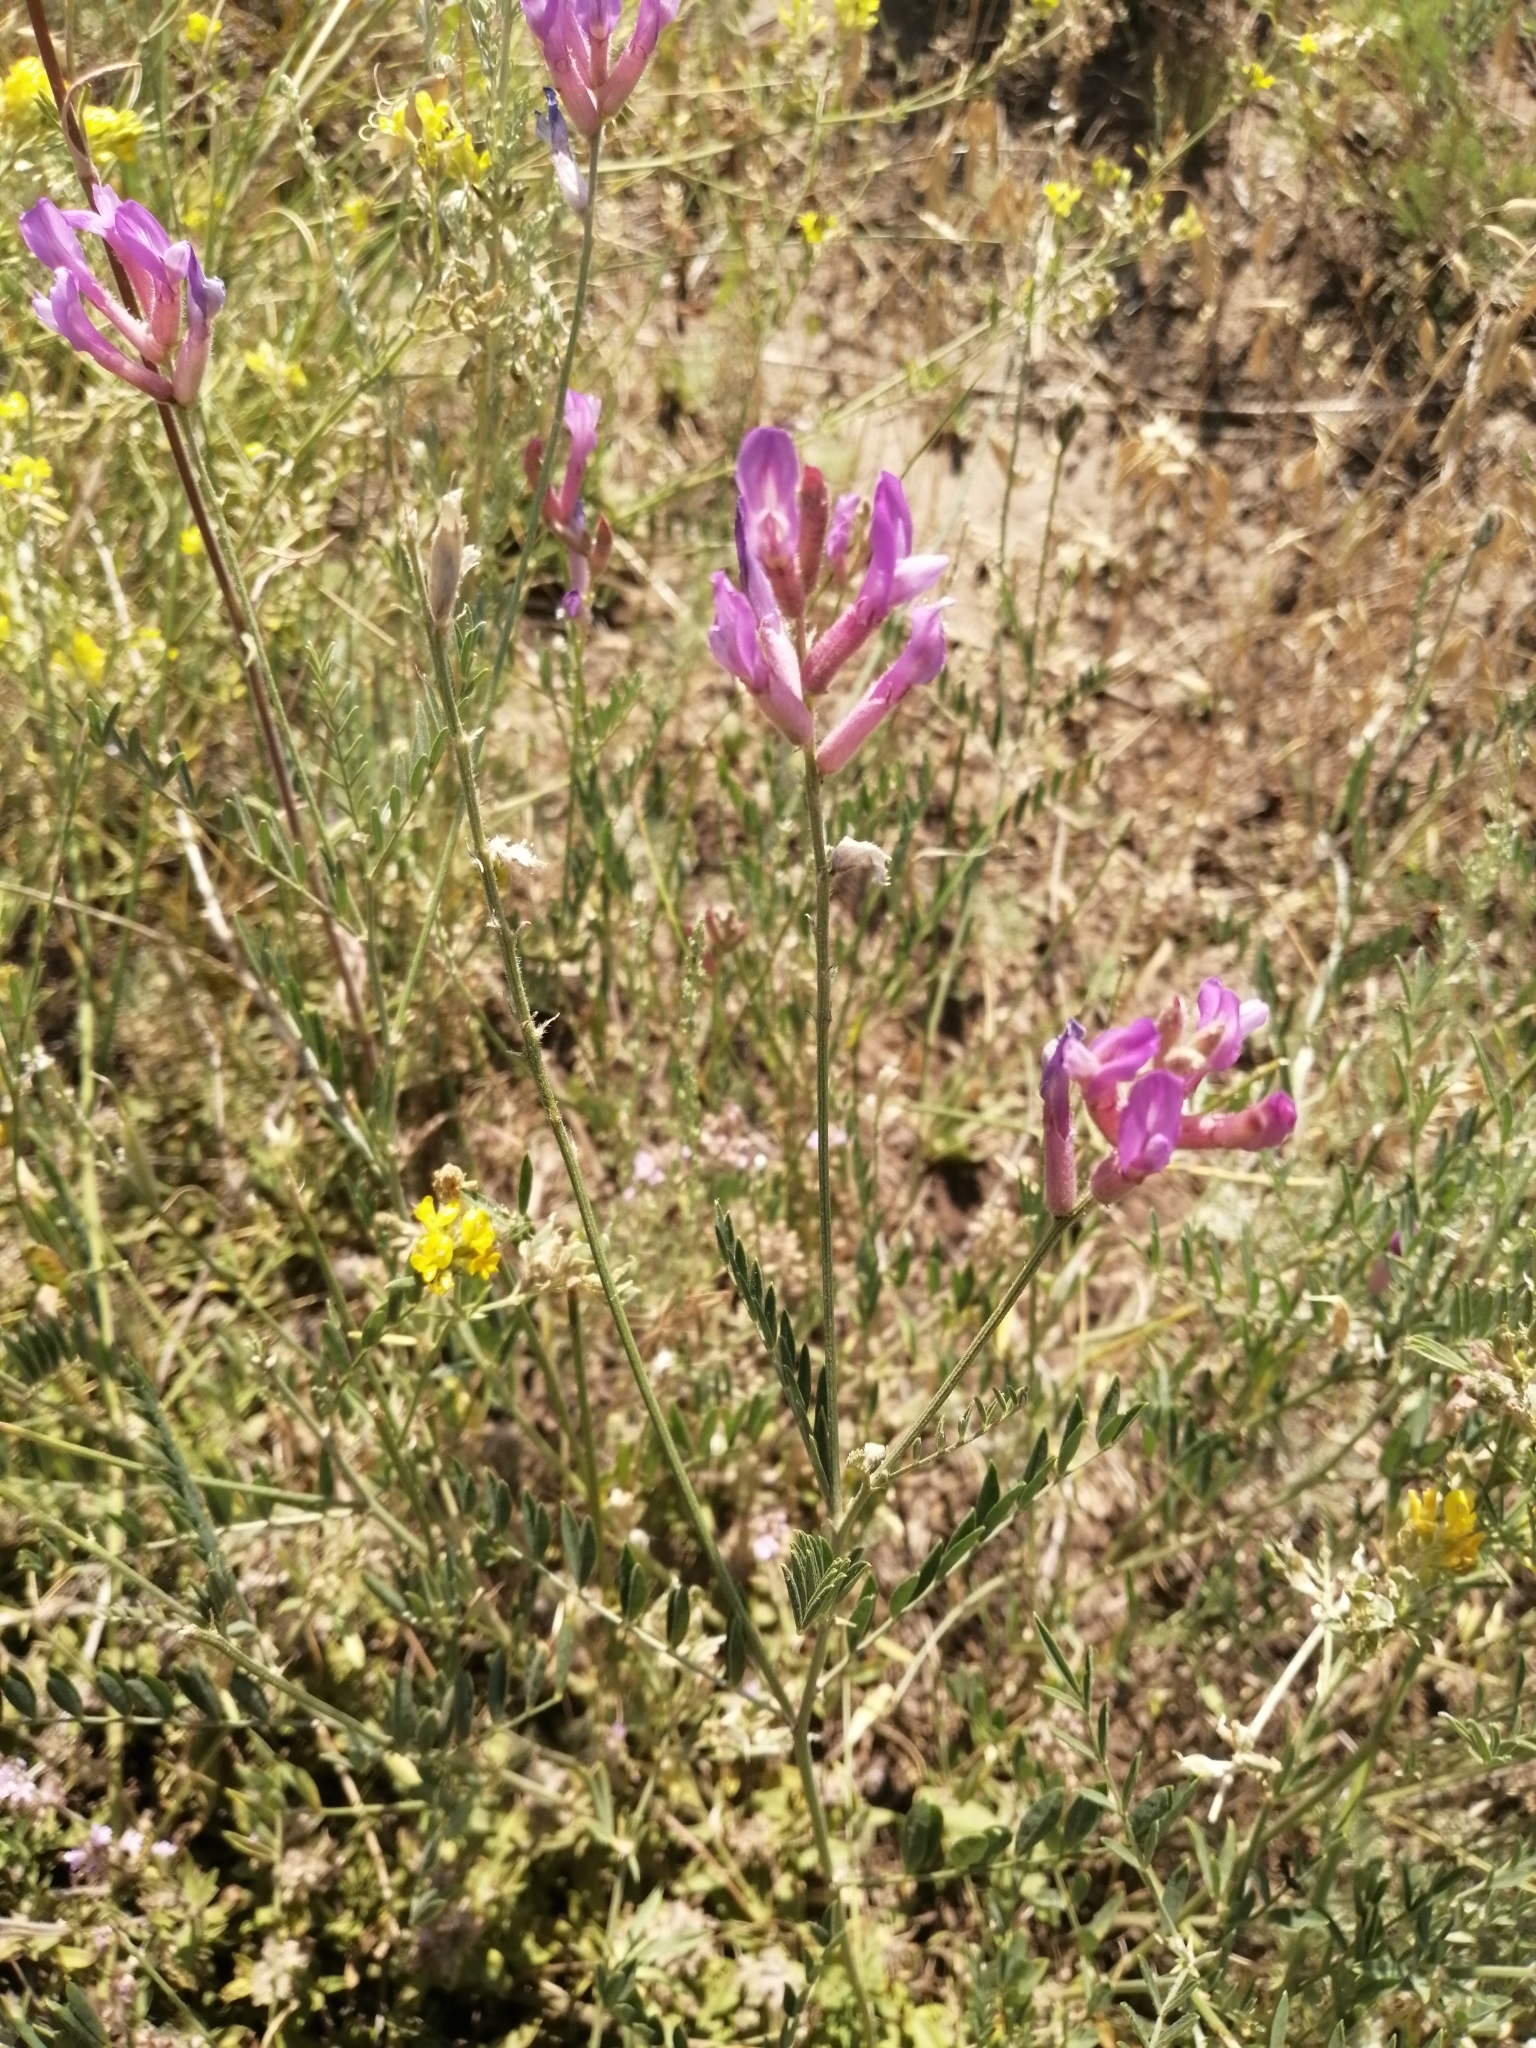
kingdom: Plantae
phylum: Tracheophyta
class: Magnoliopsida
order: Fabales
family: Fabaceae
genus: Astragalus
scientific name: Astragalus varius
